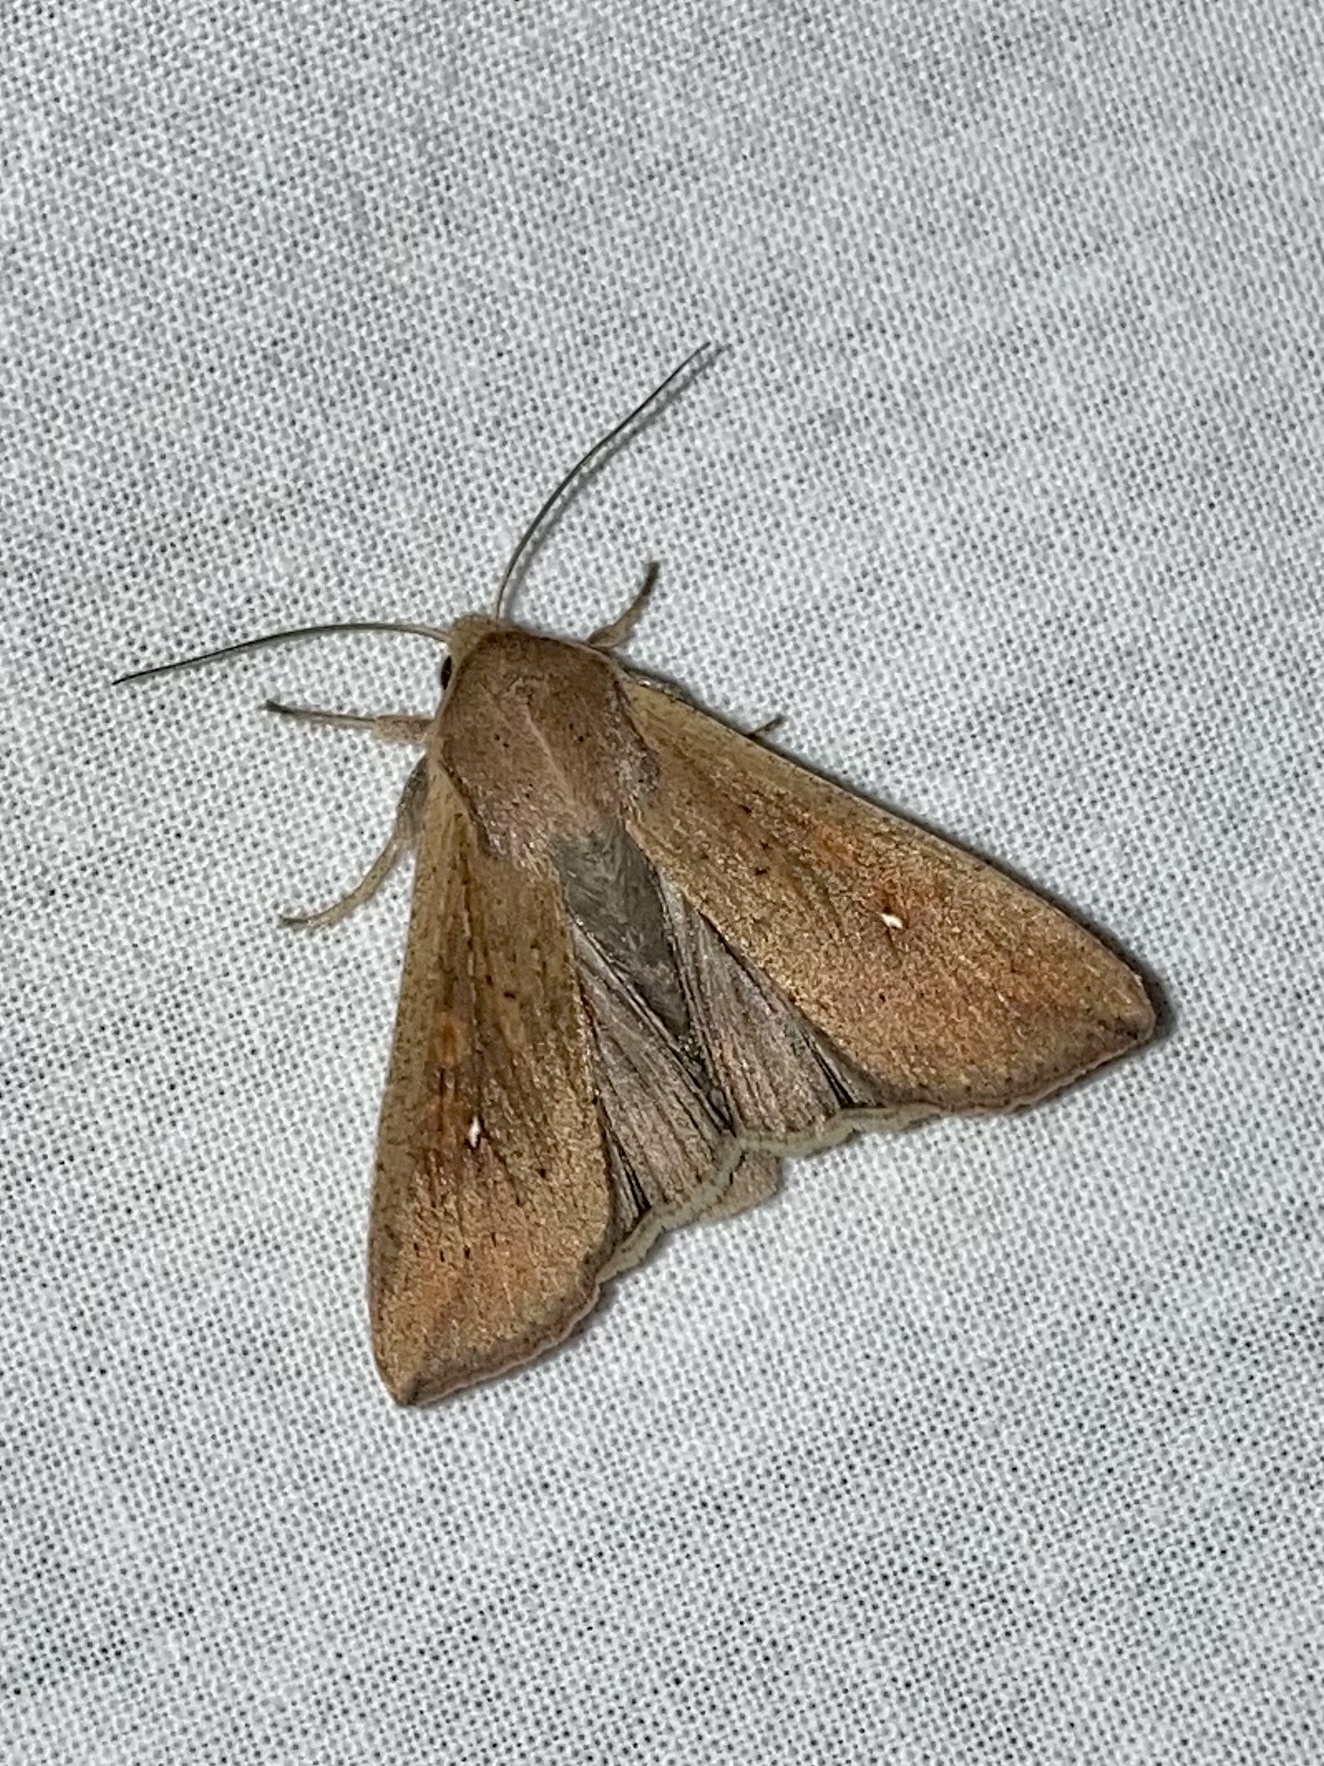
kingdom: Animalia
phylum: Arthropoda
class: Insecta
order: Lepidoptera
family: Noctuidae
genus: Mythimna
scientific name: Mythimna unipuncta
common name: White-speck
